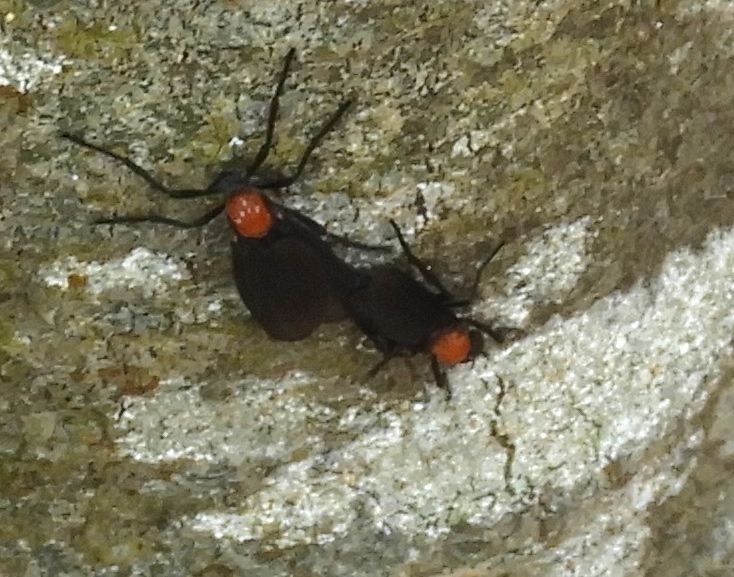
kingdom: Animalia
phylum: Arthropoda
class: Insecta
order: Diptera
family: Bibionidae
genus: Plecia
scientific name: Plecia
